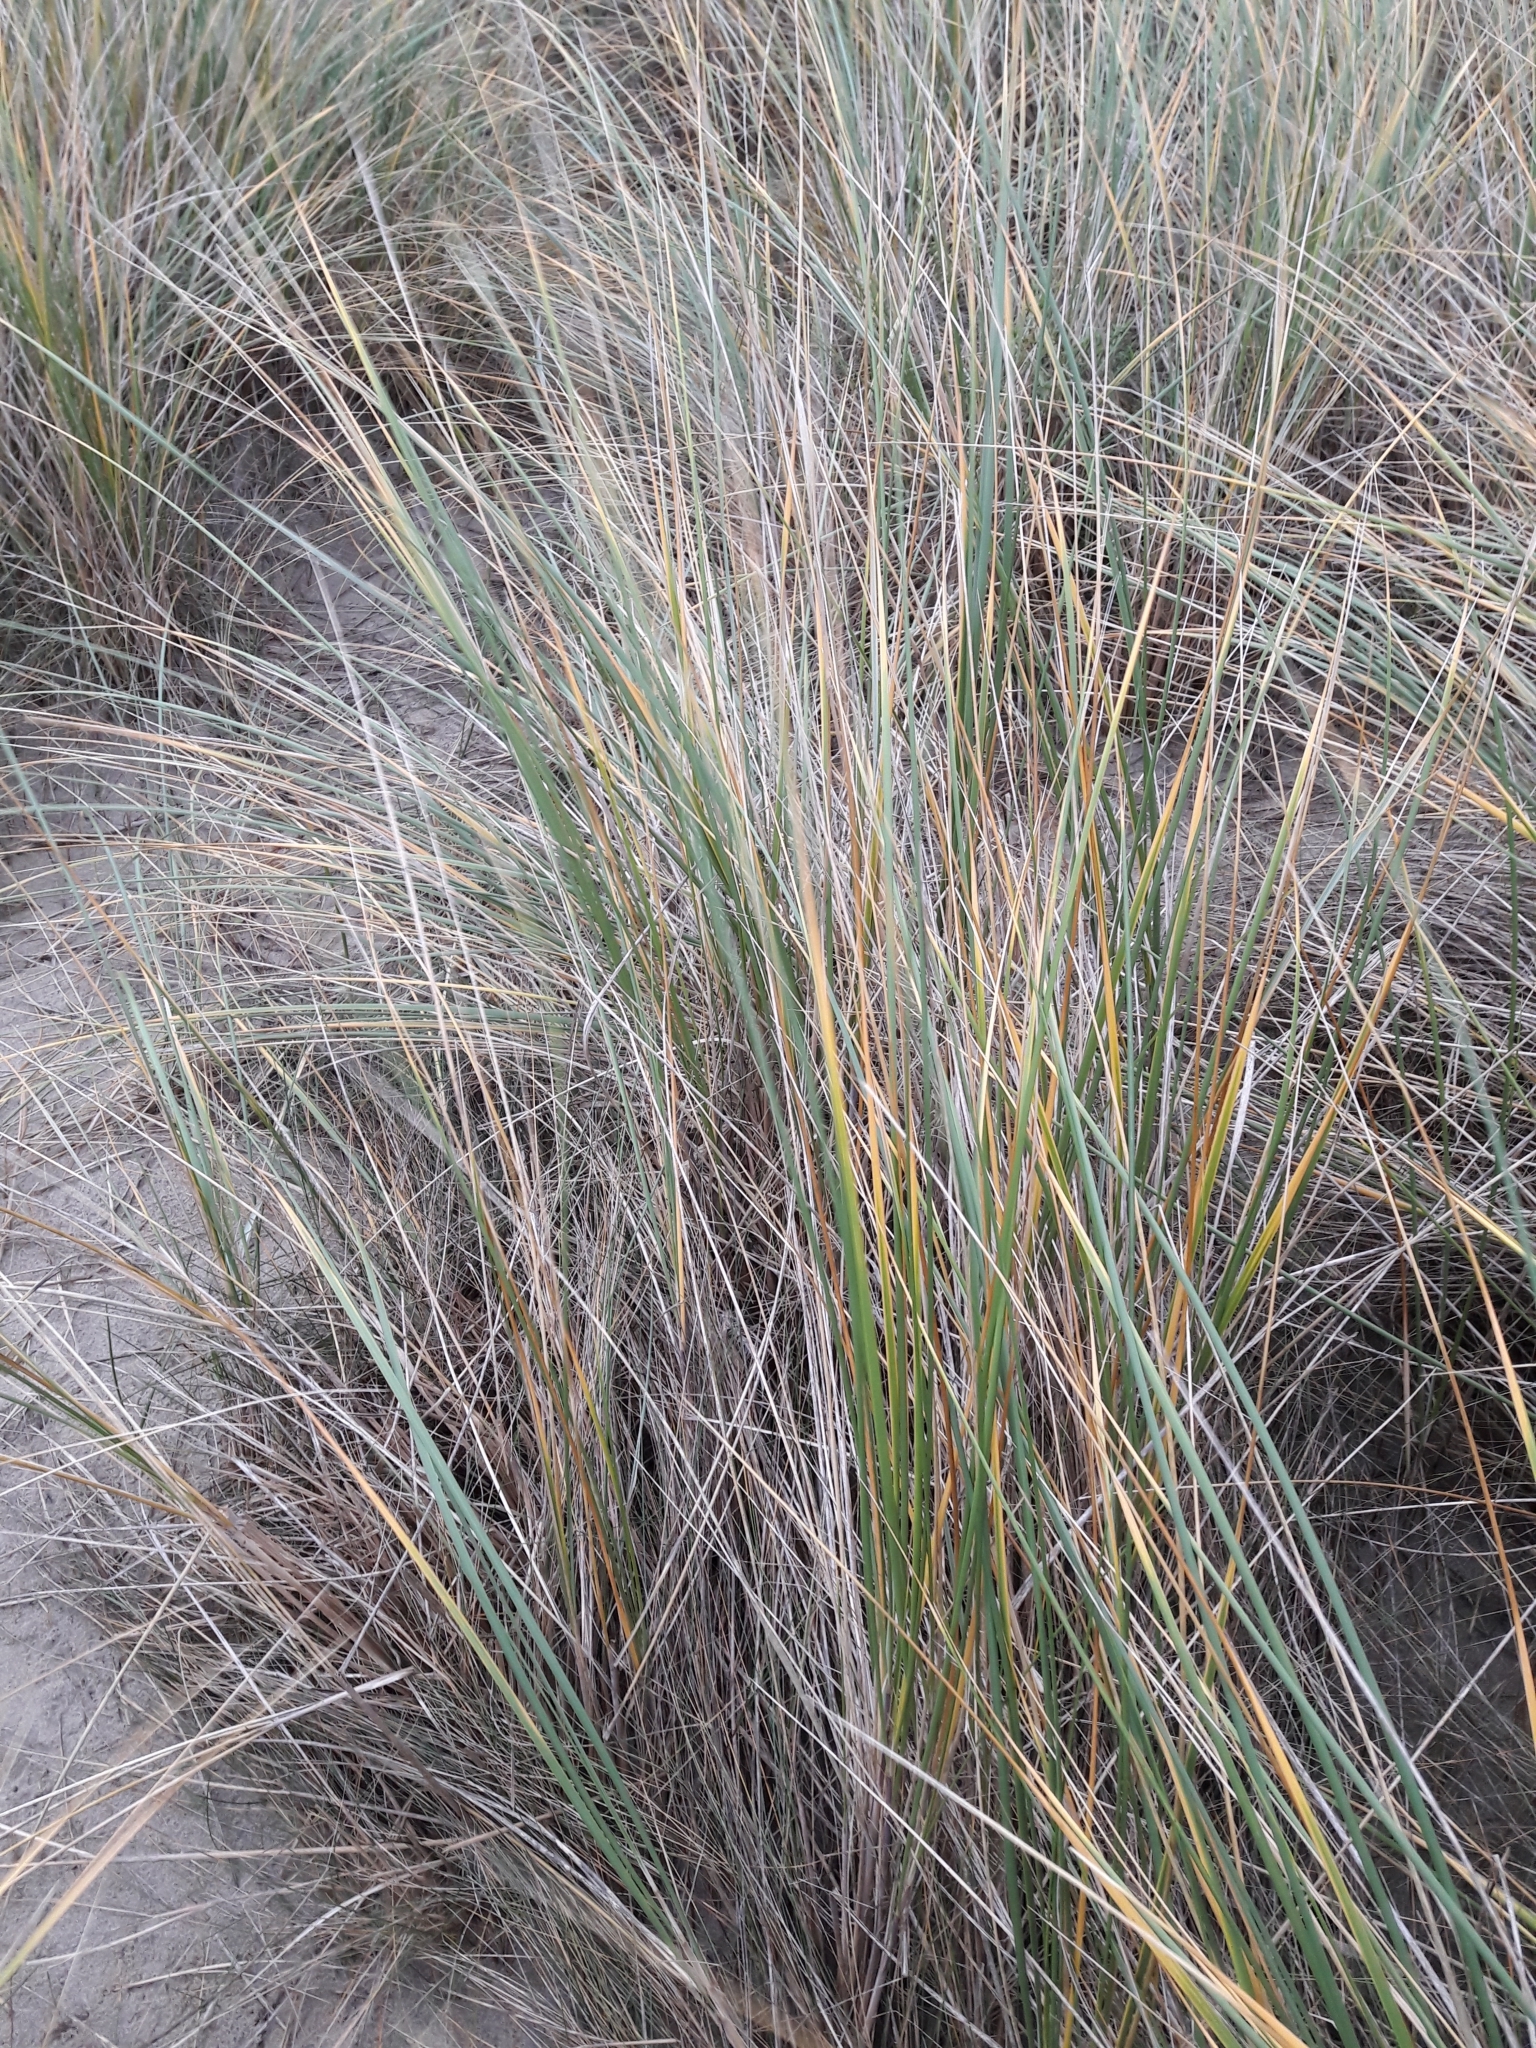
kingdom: Plantae
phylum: Tracheophyta
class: Liliopsida
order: Poales
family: Poaceae
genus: Calamagrostis
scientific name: Calamagrostis arenaria
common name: European beachgrass
